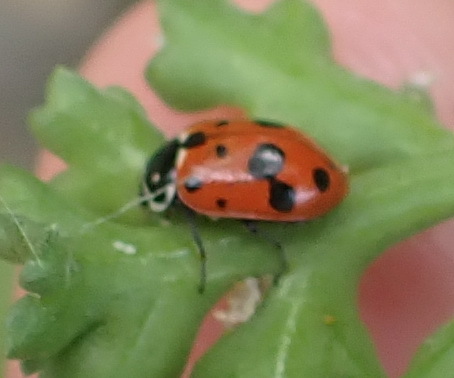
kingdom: Animalia
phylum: Arthropoda
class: Insecta
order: Coleoptera
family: Coccinellidae
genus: Hippodamia
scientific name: Hippodamia variegata
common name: Ladybird beetle
